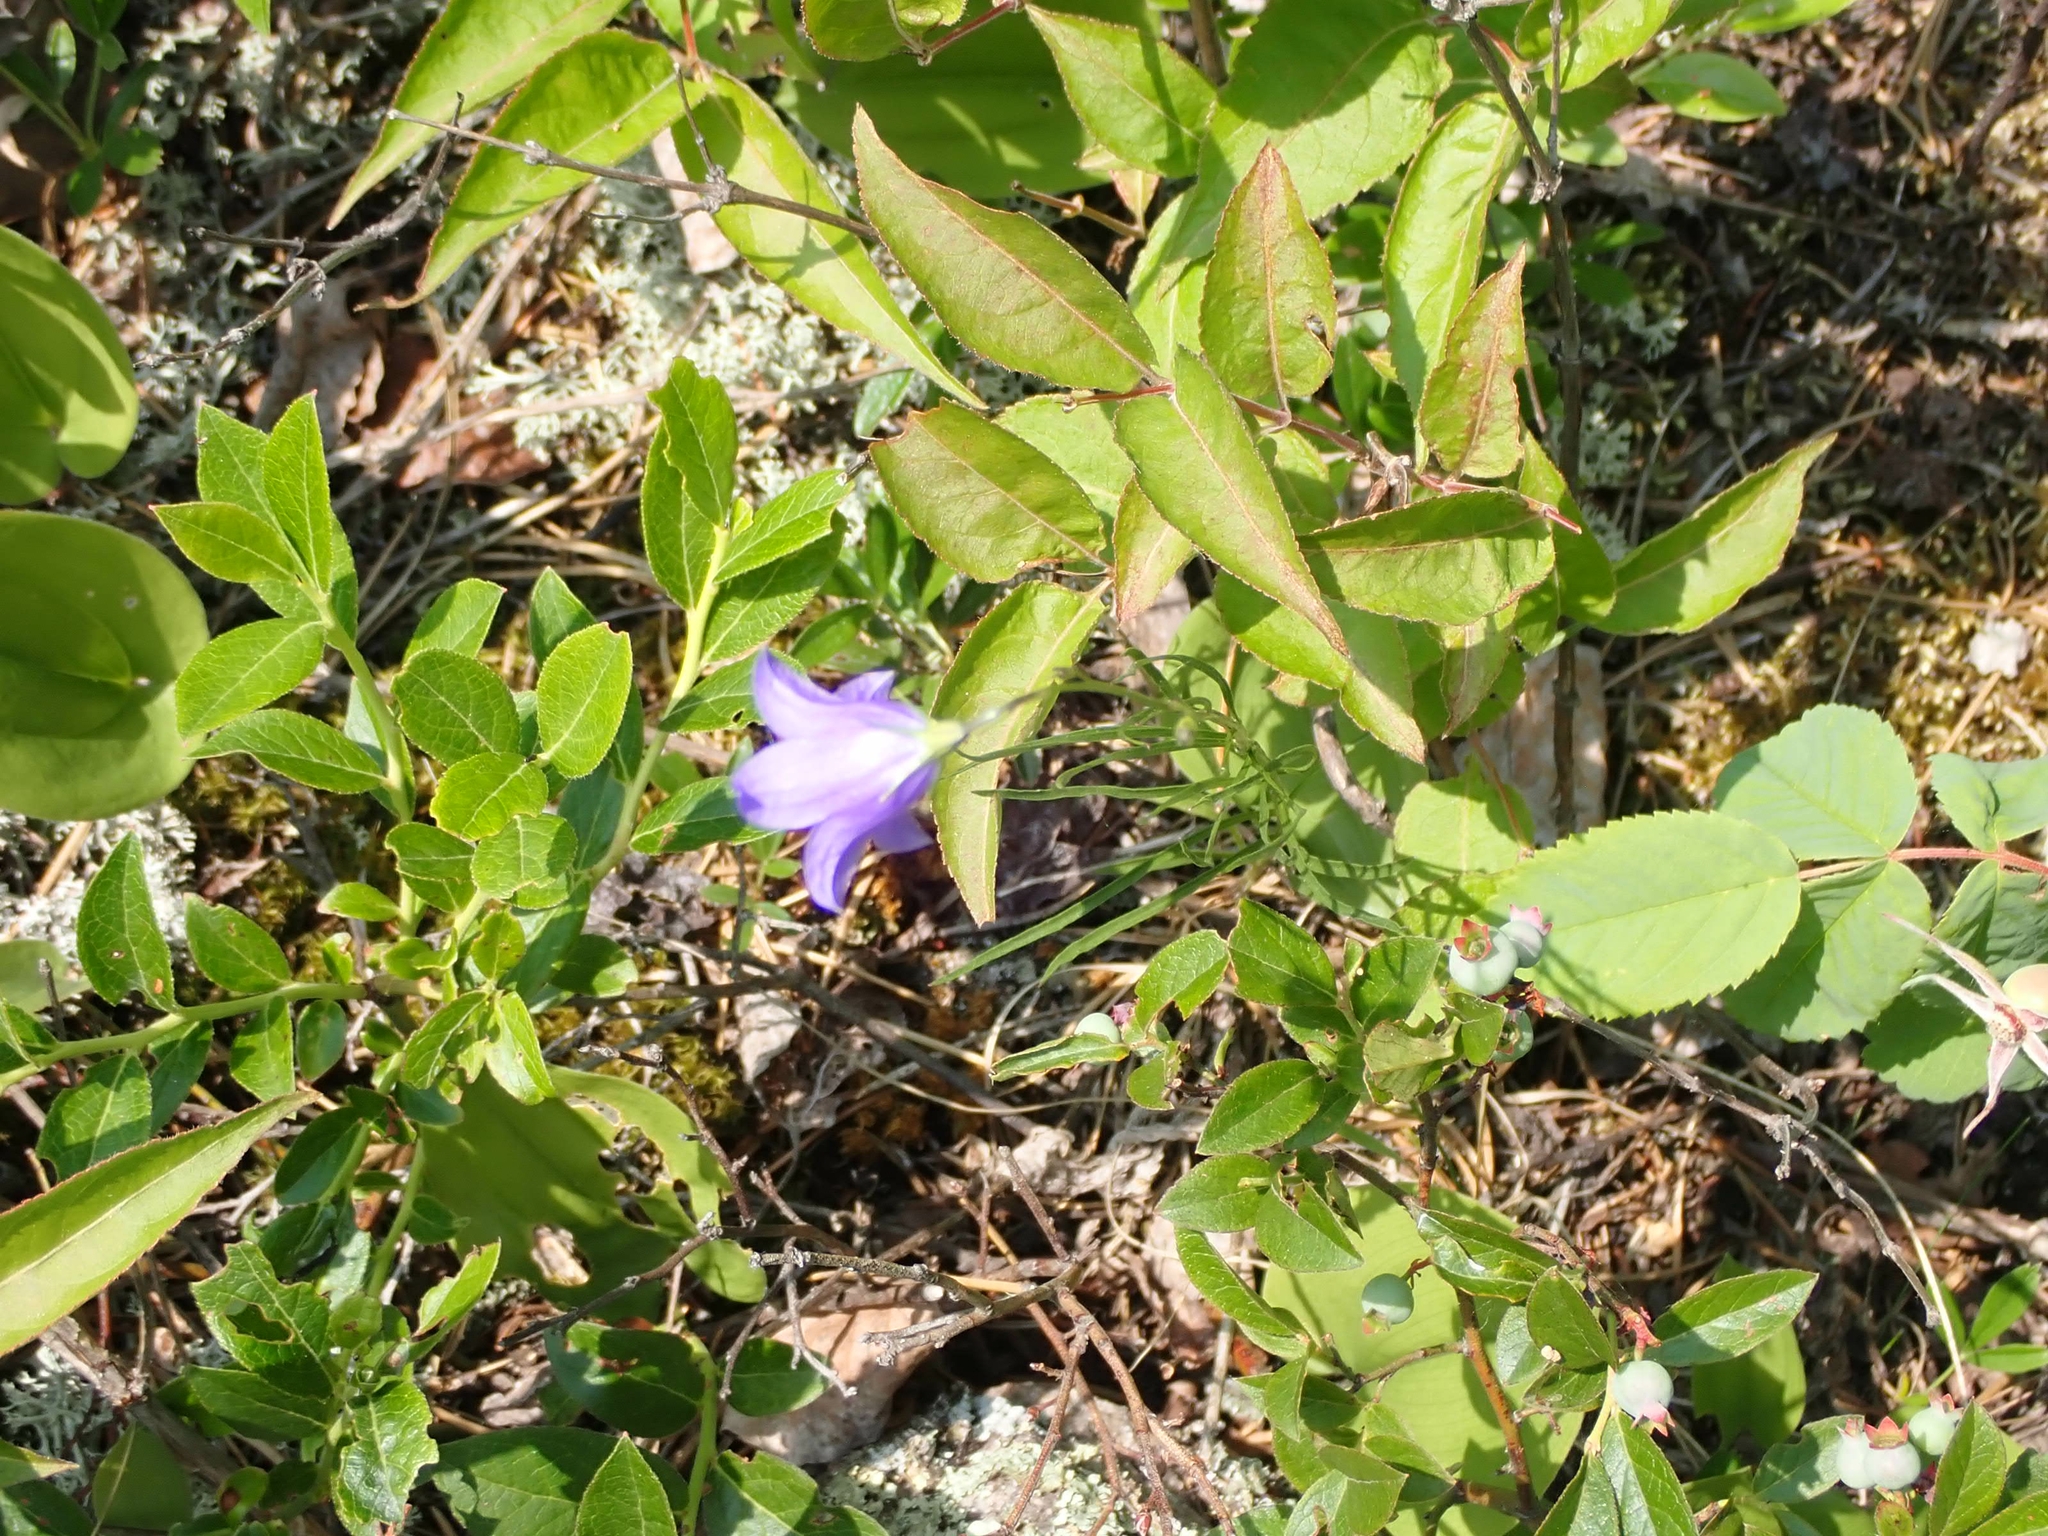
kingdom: Plantae
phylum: Tracheophyta
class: Magnoliopsida
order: Asterales
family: Campanulaceae
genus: Campanula
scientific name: Campanula petiolata
